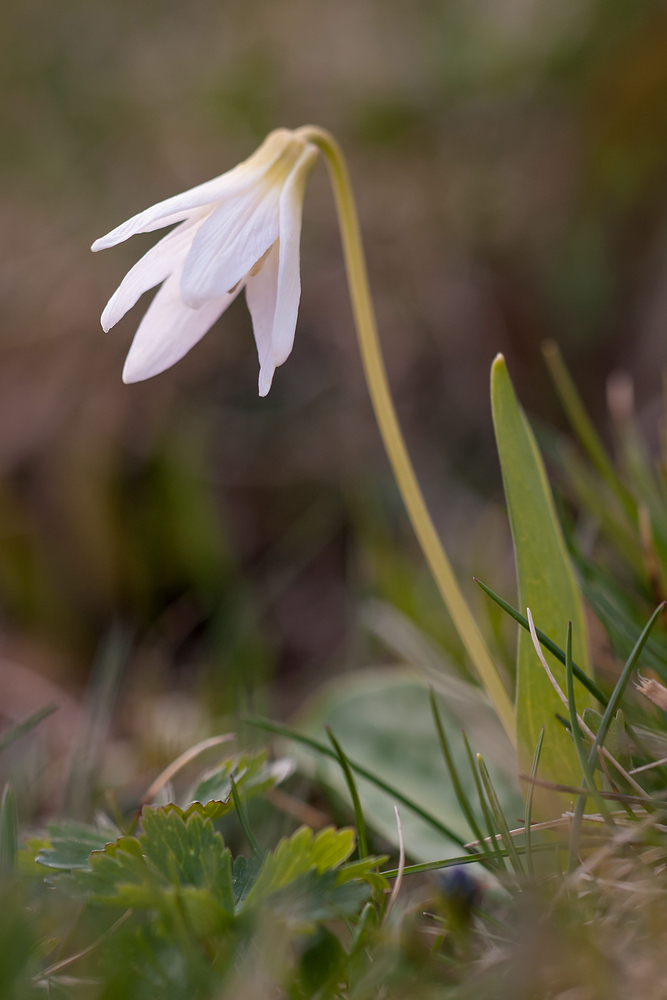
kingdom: Plantae
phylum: Tracheophyta
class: Liliopsida
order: Liliales
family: Liliaceae
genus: Erythronium
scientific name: Erythronium dens-canis
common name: Dog's-tooth-violet
